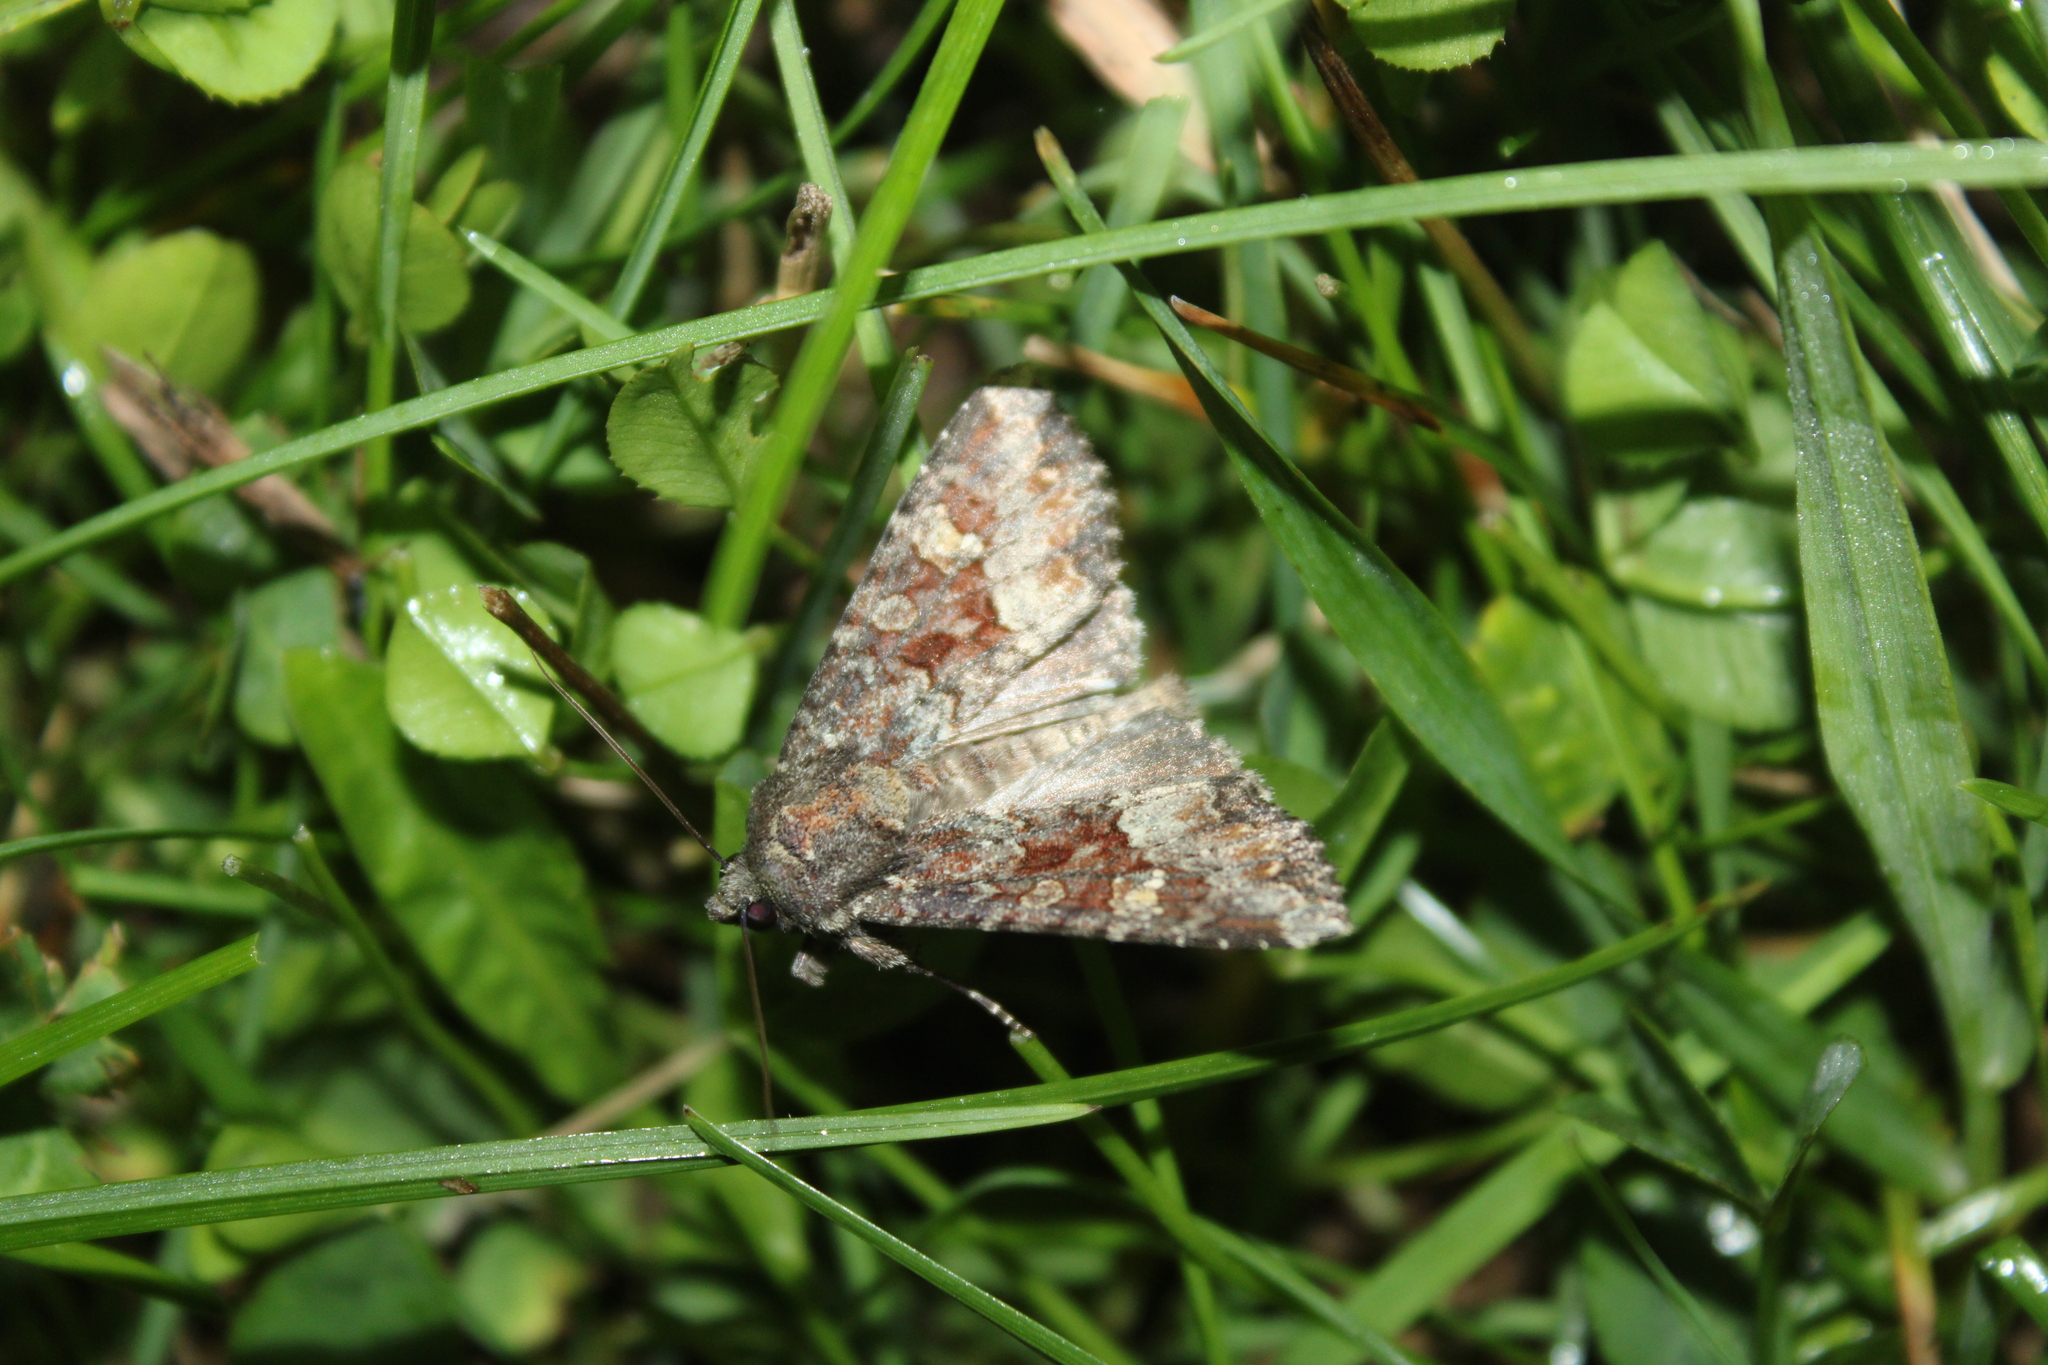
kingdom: Animalia
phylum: Arthropoda
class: Insecta
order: Lepidoptera
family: Noctuidae
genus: Apamea
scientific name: Apamea amputatrix
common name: Yellow-headed cutworm moth
